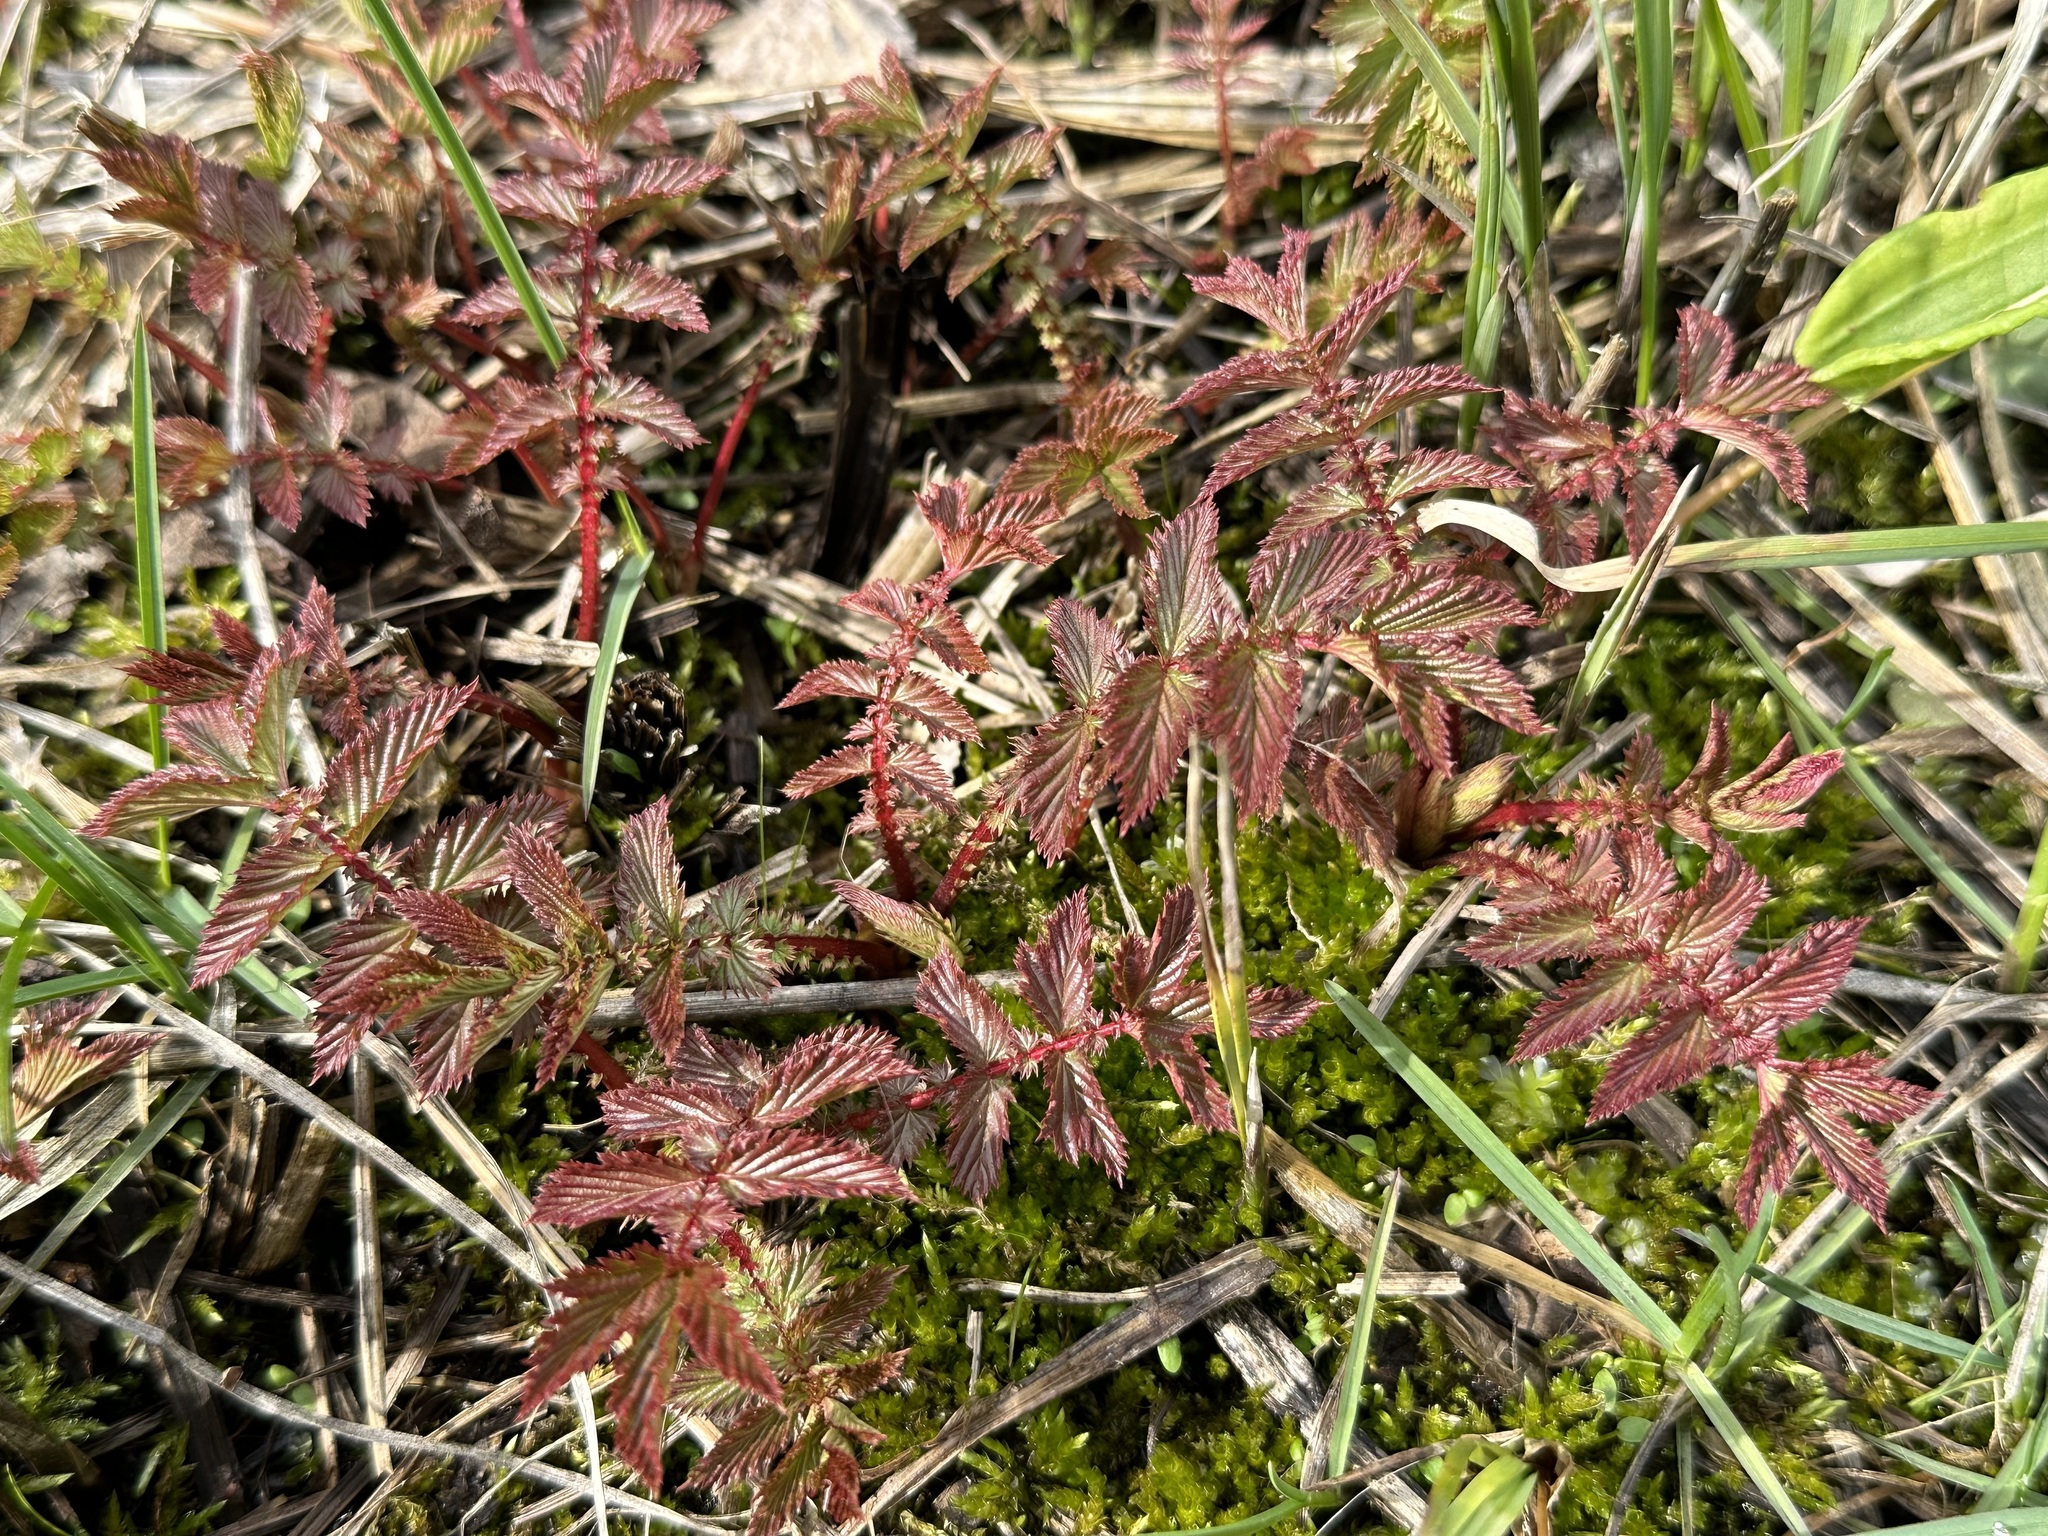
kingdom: Plantae
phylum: Tracheophyta
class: Magnoliopsida
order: Rosales
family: Rosaceae
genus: Filipendula
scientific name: Filipendula ulmaria
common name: Meadowsweet
